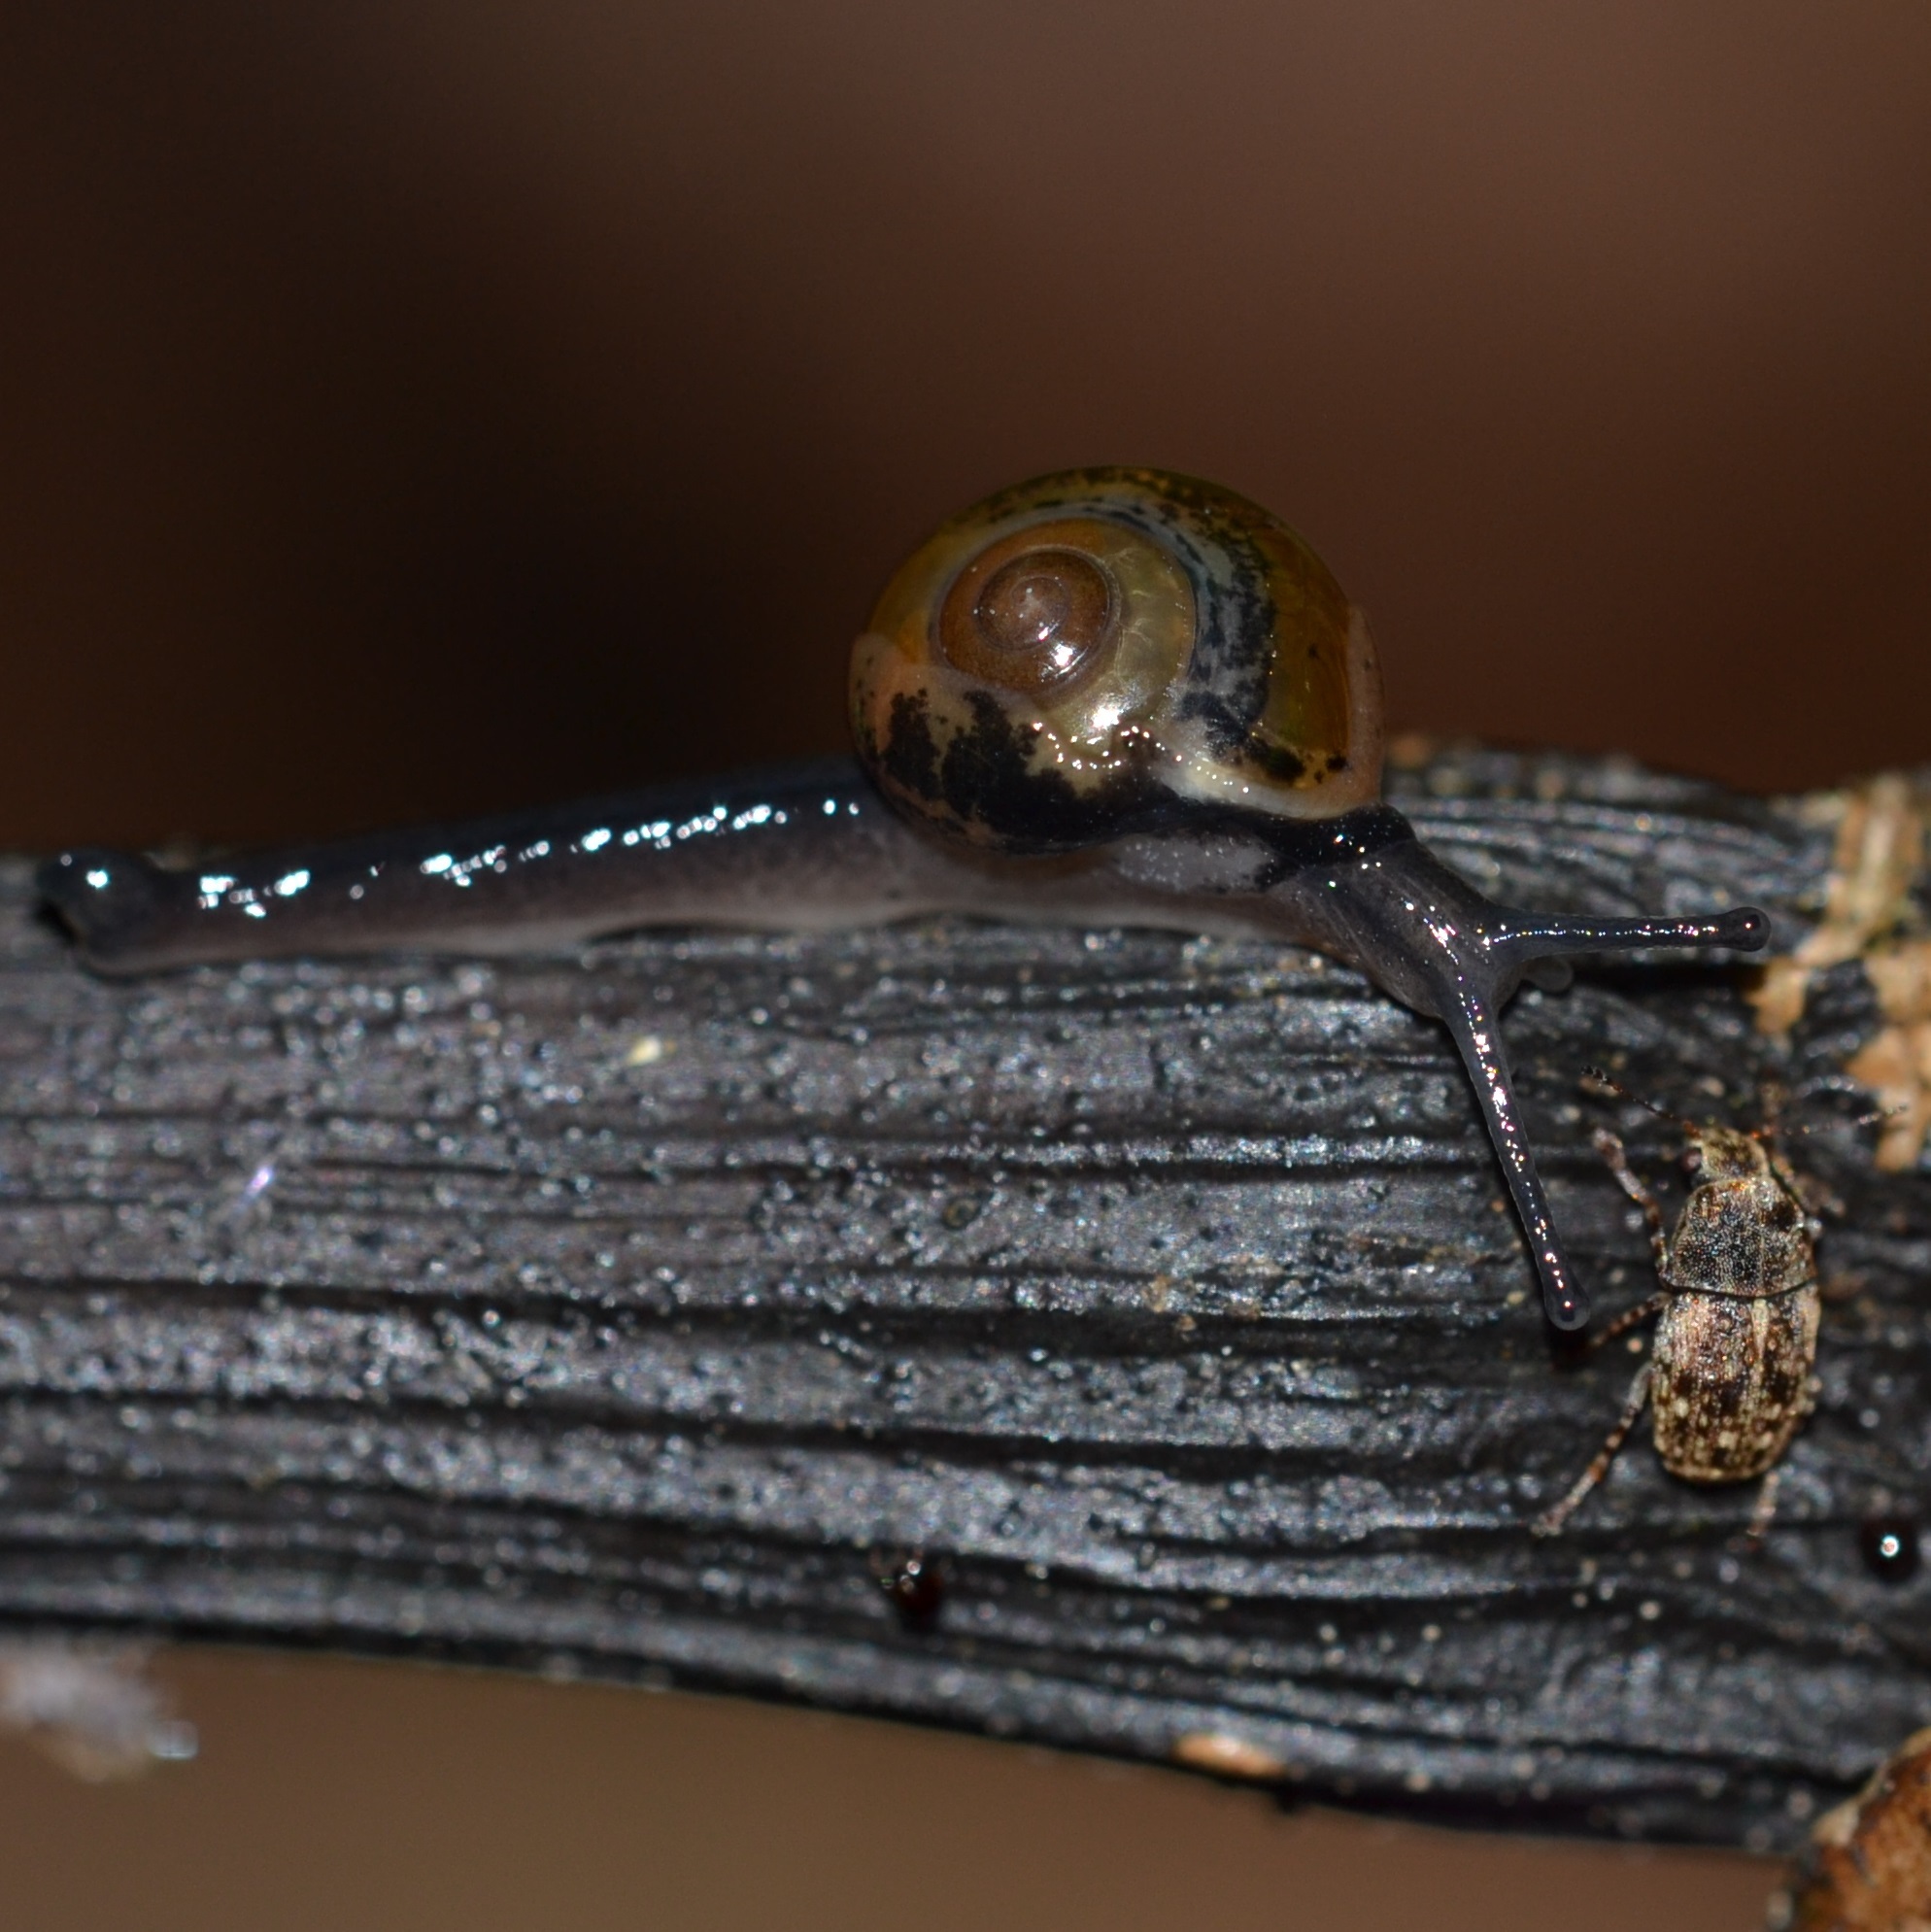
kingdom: Animalia
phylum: Mollusca
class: Gastropoda
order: Stylommatophora
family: Helicarionidae
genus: Ovachlamys
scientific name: Ovachlamys fulgens
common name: Jumping snail
